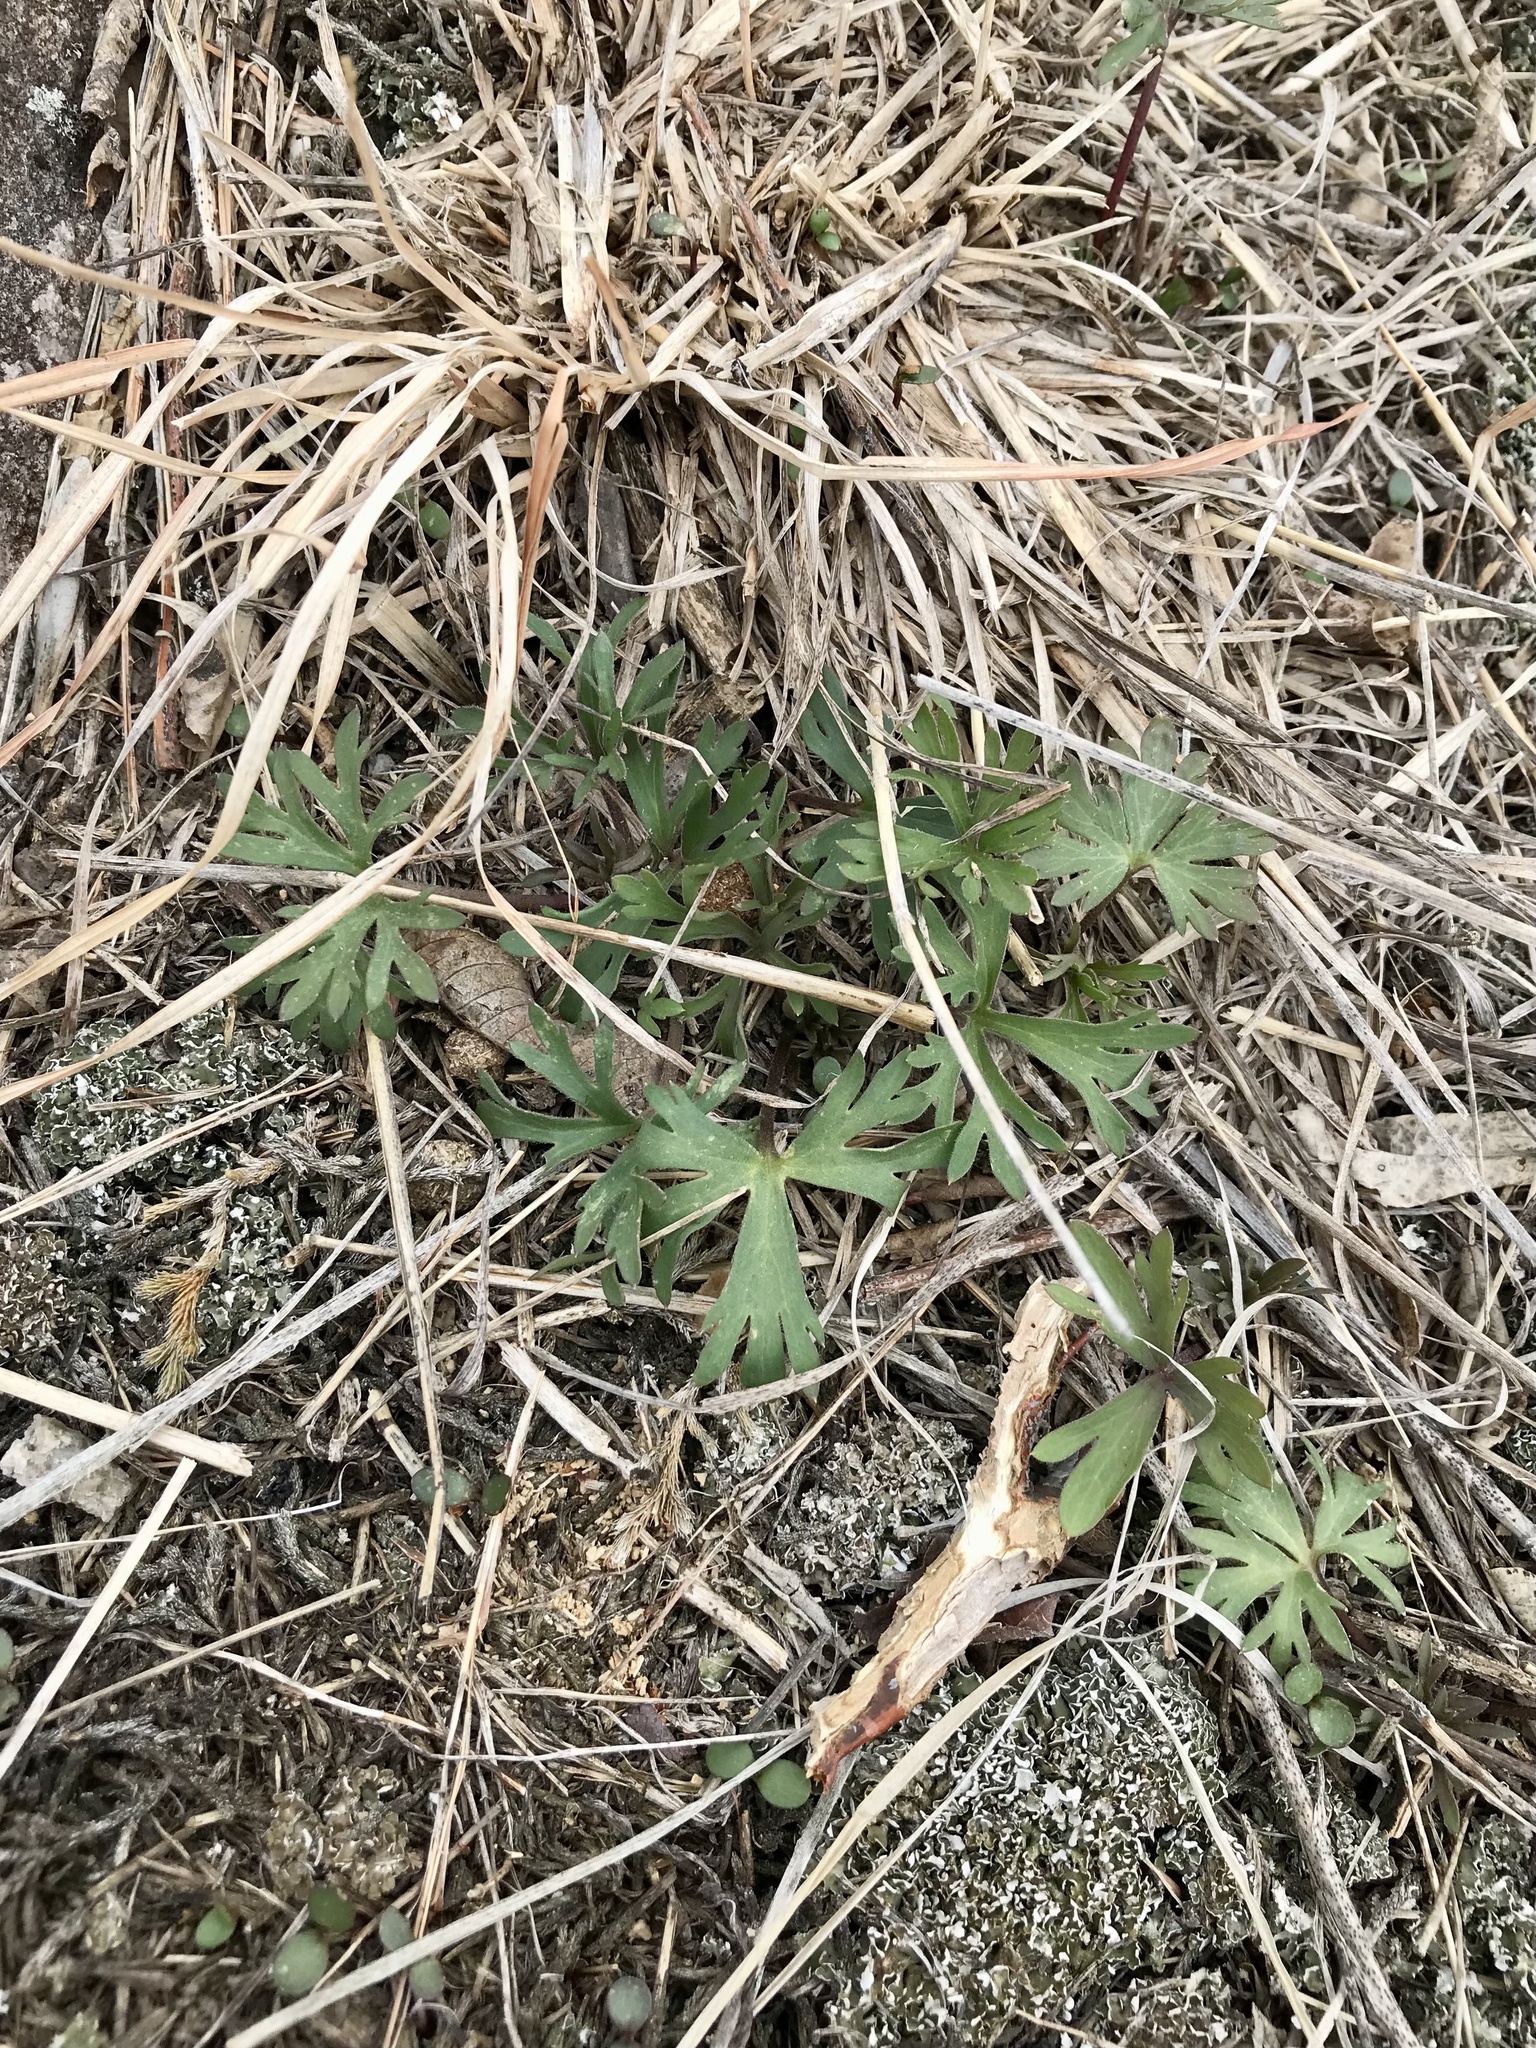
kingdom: Plantae
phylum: Tracheophyta
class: Magnoliopsida
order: Ranunculales
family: Ranunculaceae
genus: Anemone
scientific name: Anemone caroliniana
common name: Carolina anemone
